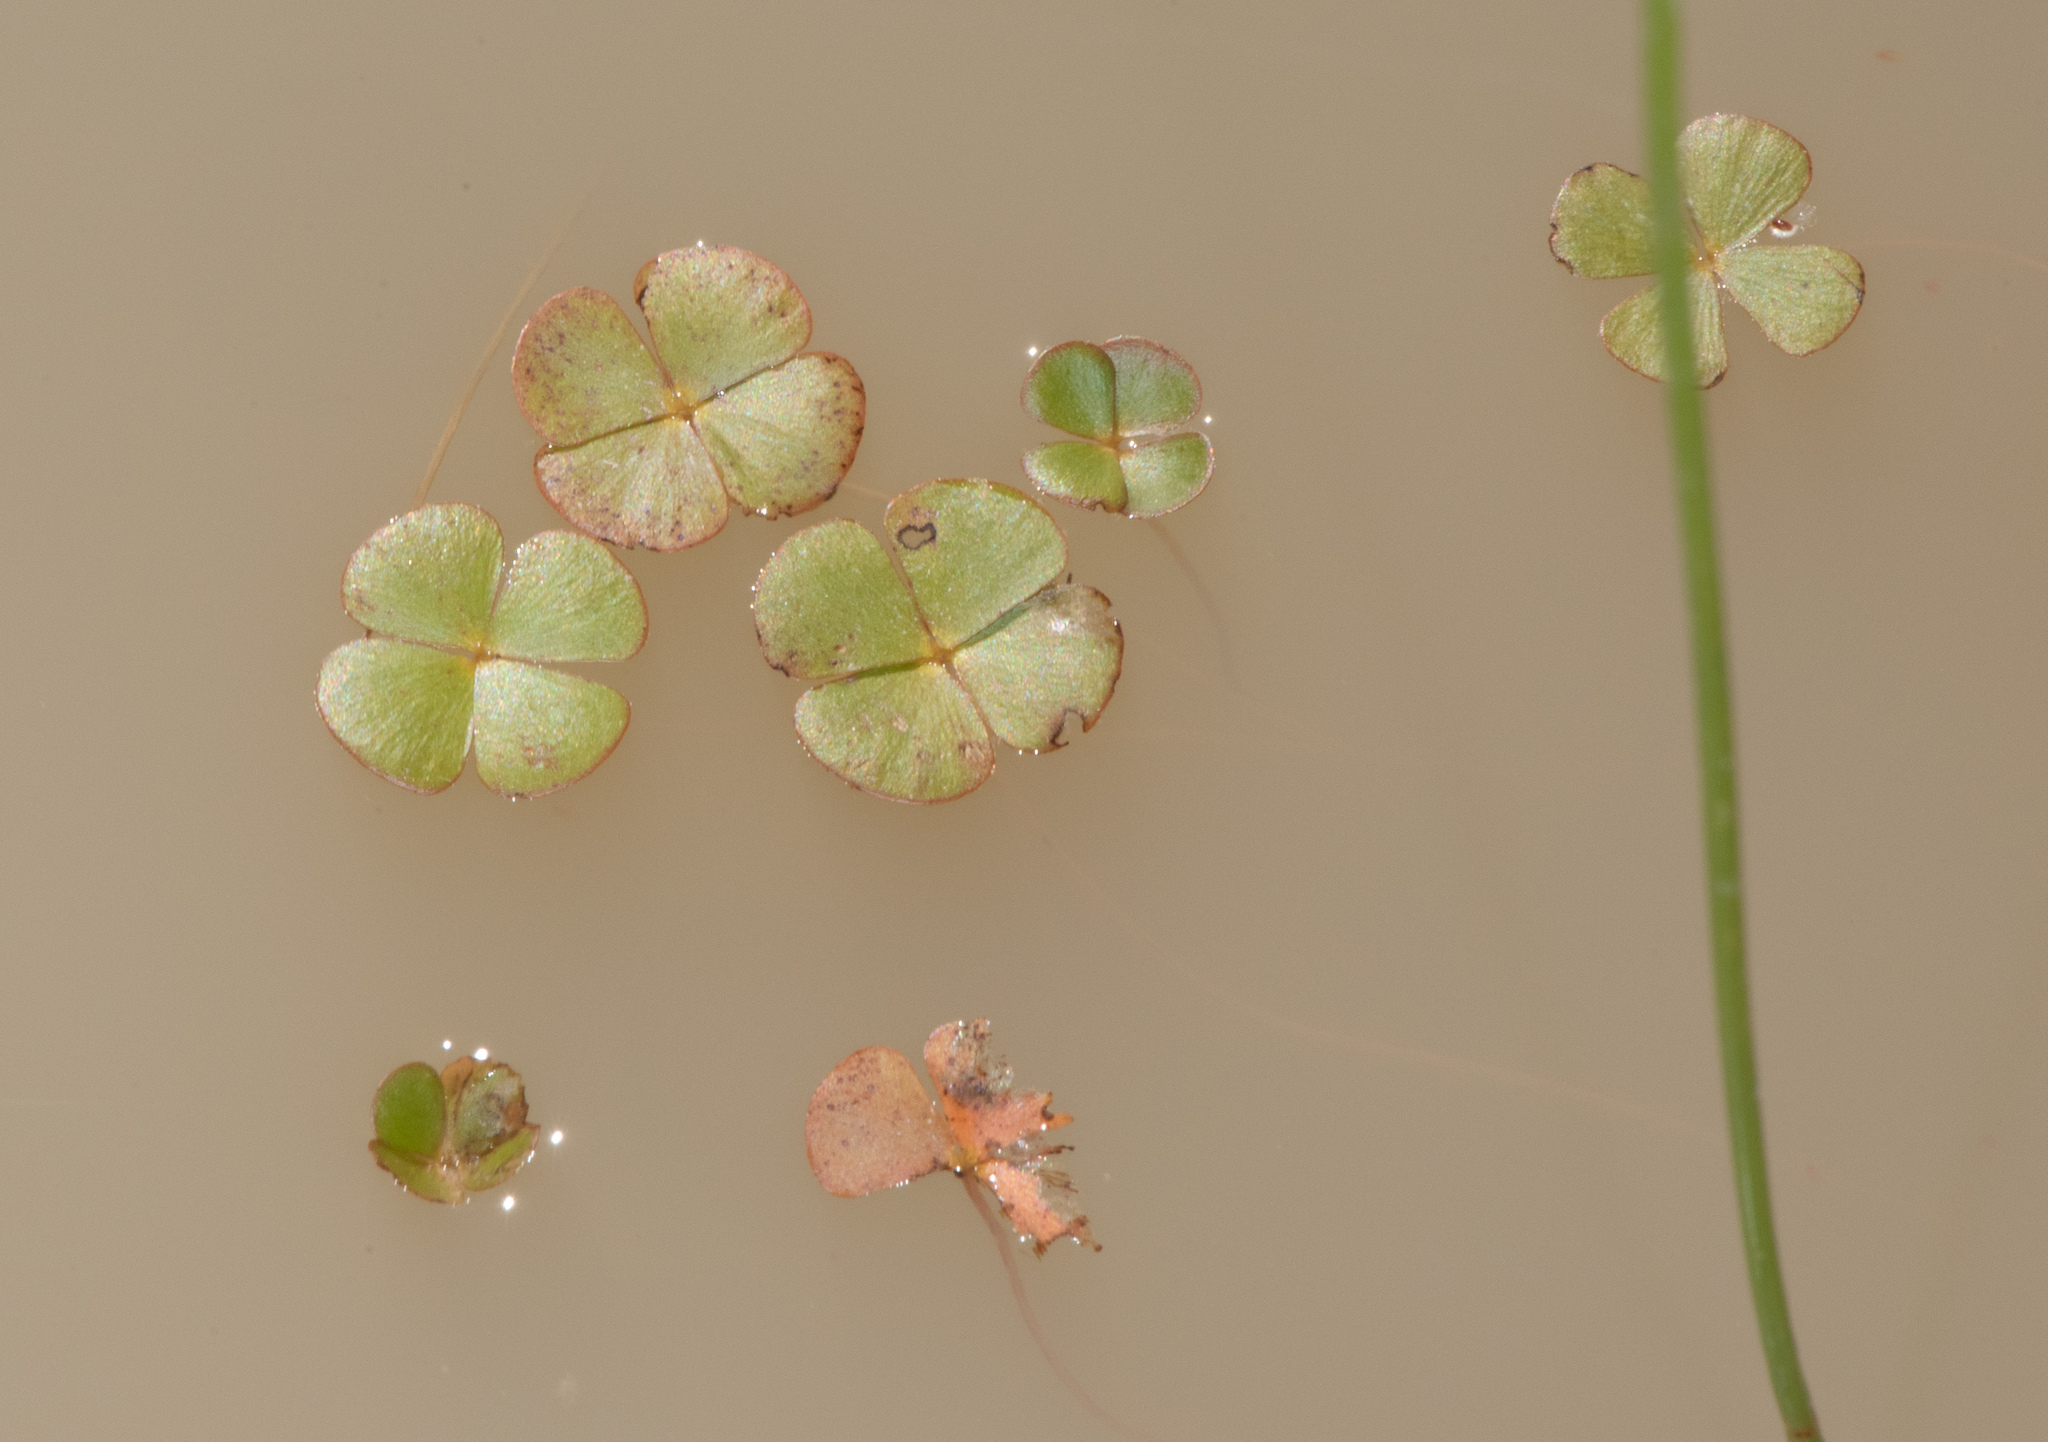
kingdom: Plantae
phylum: Tracheophyta
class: Polypodiopsida
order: Salviniales
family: Marsileaceae
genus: Marsilea
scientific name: Marsilea vestita
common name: Hooked-pepperwort
